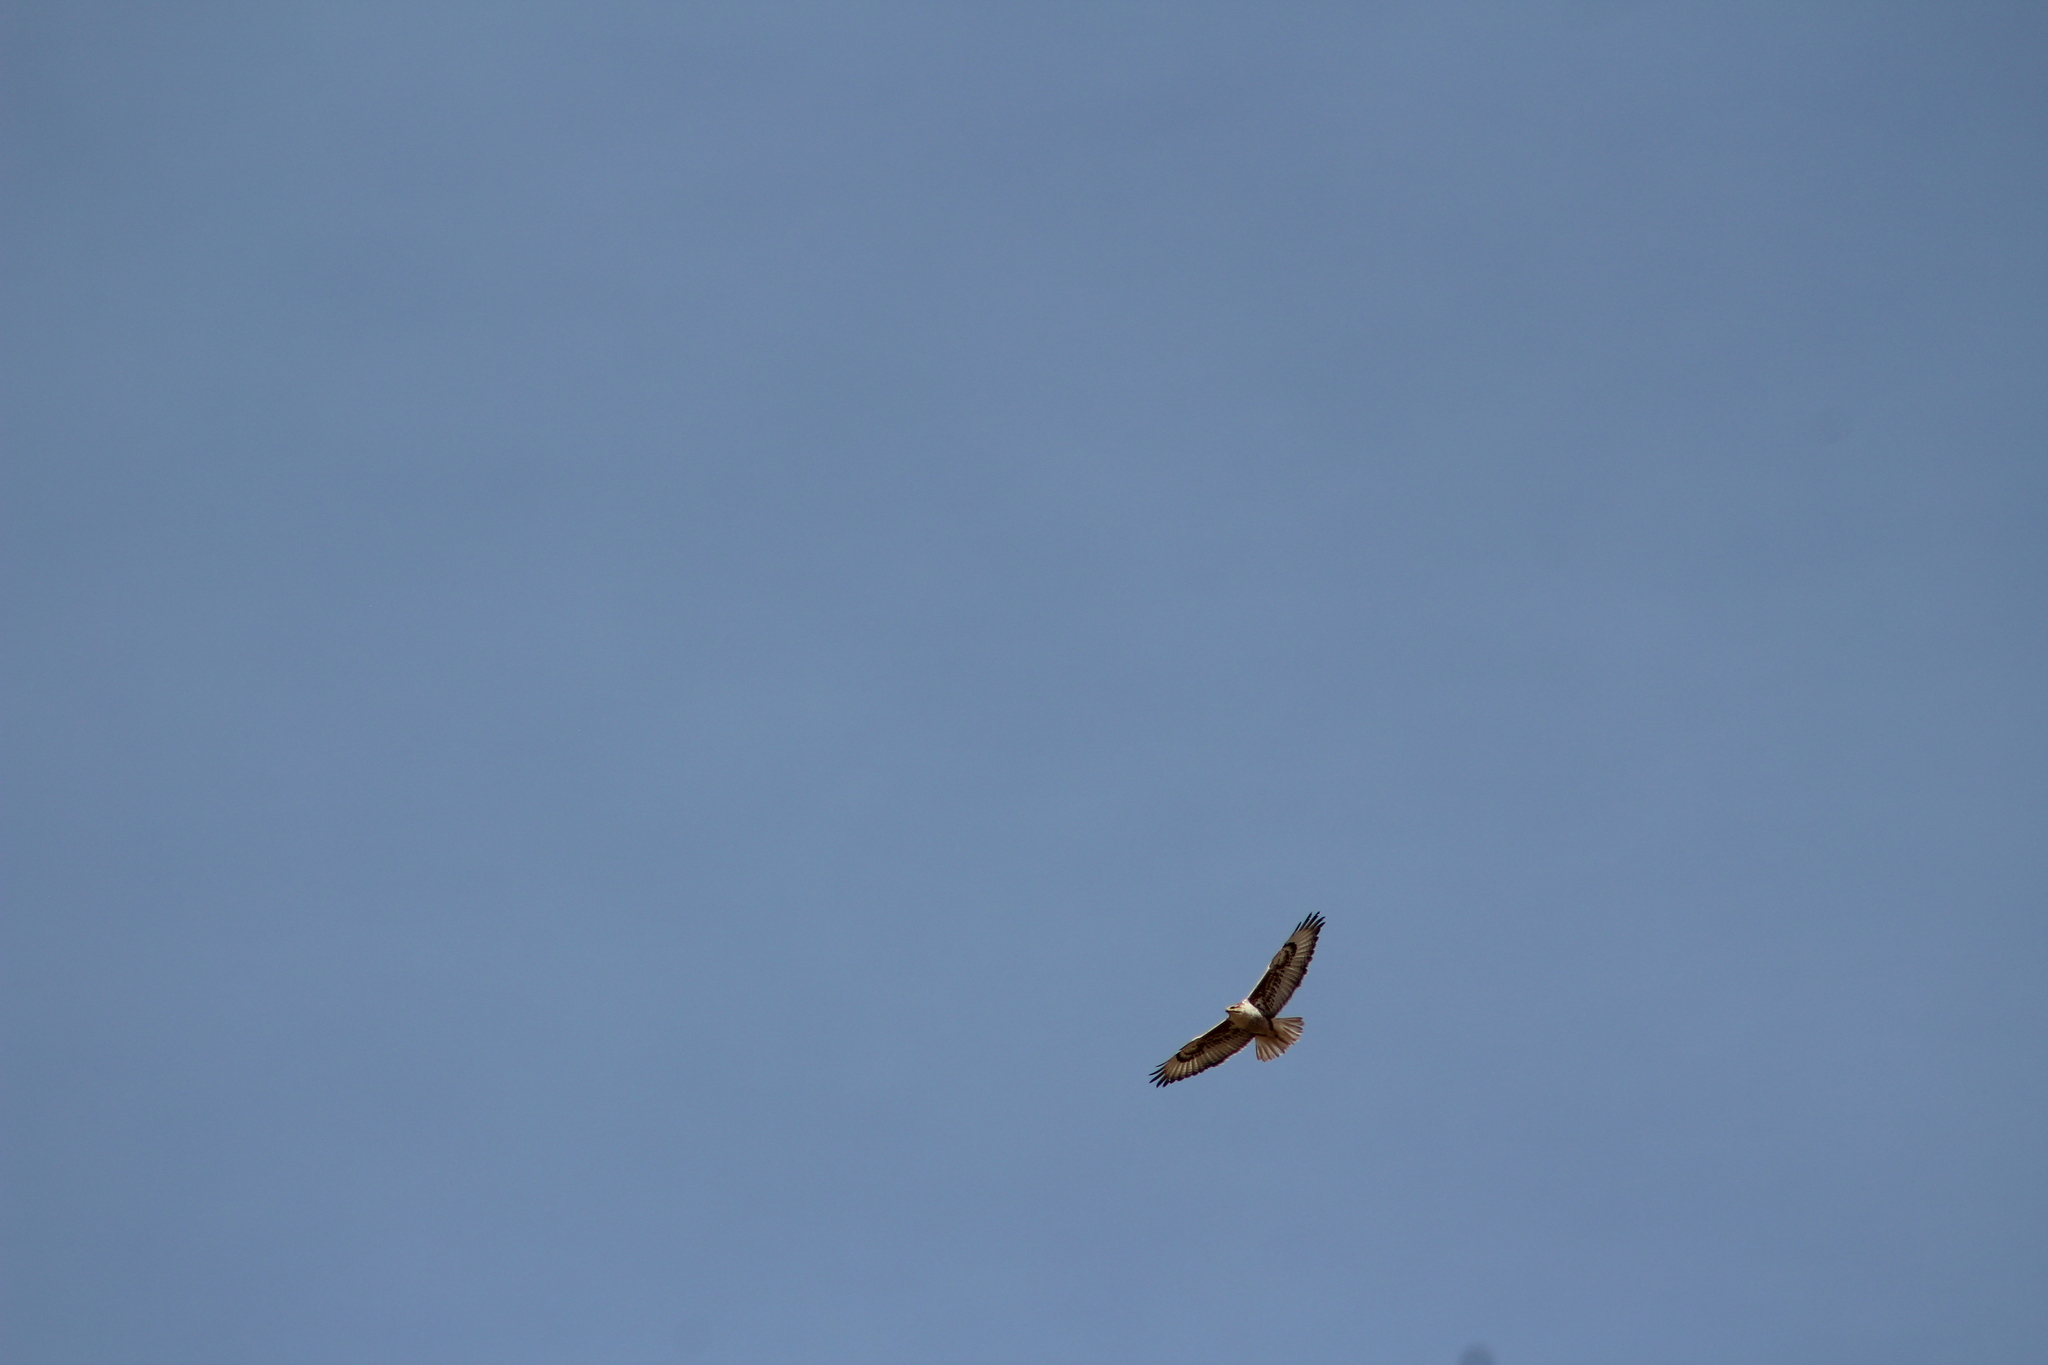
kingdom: Animalia
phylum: Chordata
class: Aves
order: Accipitriformes
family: Accipitridae
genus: Buteo
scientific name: Buteo regalis
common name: Ferruginous hawk
